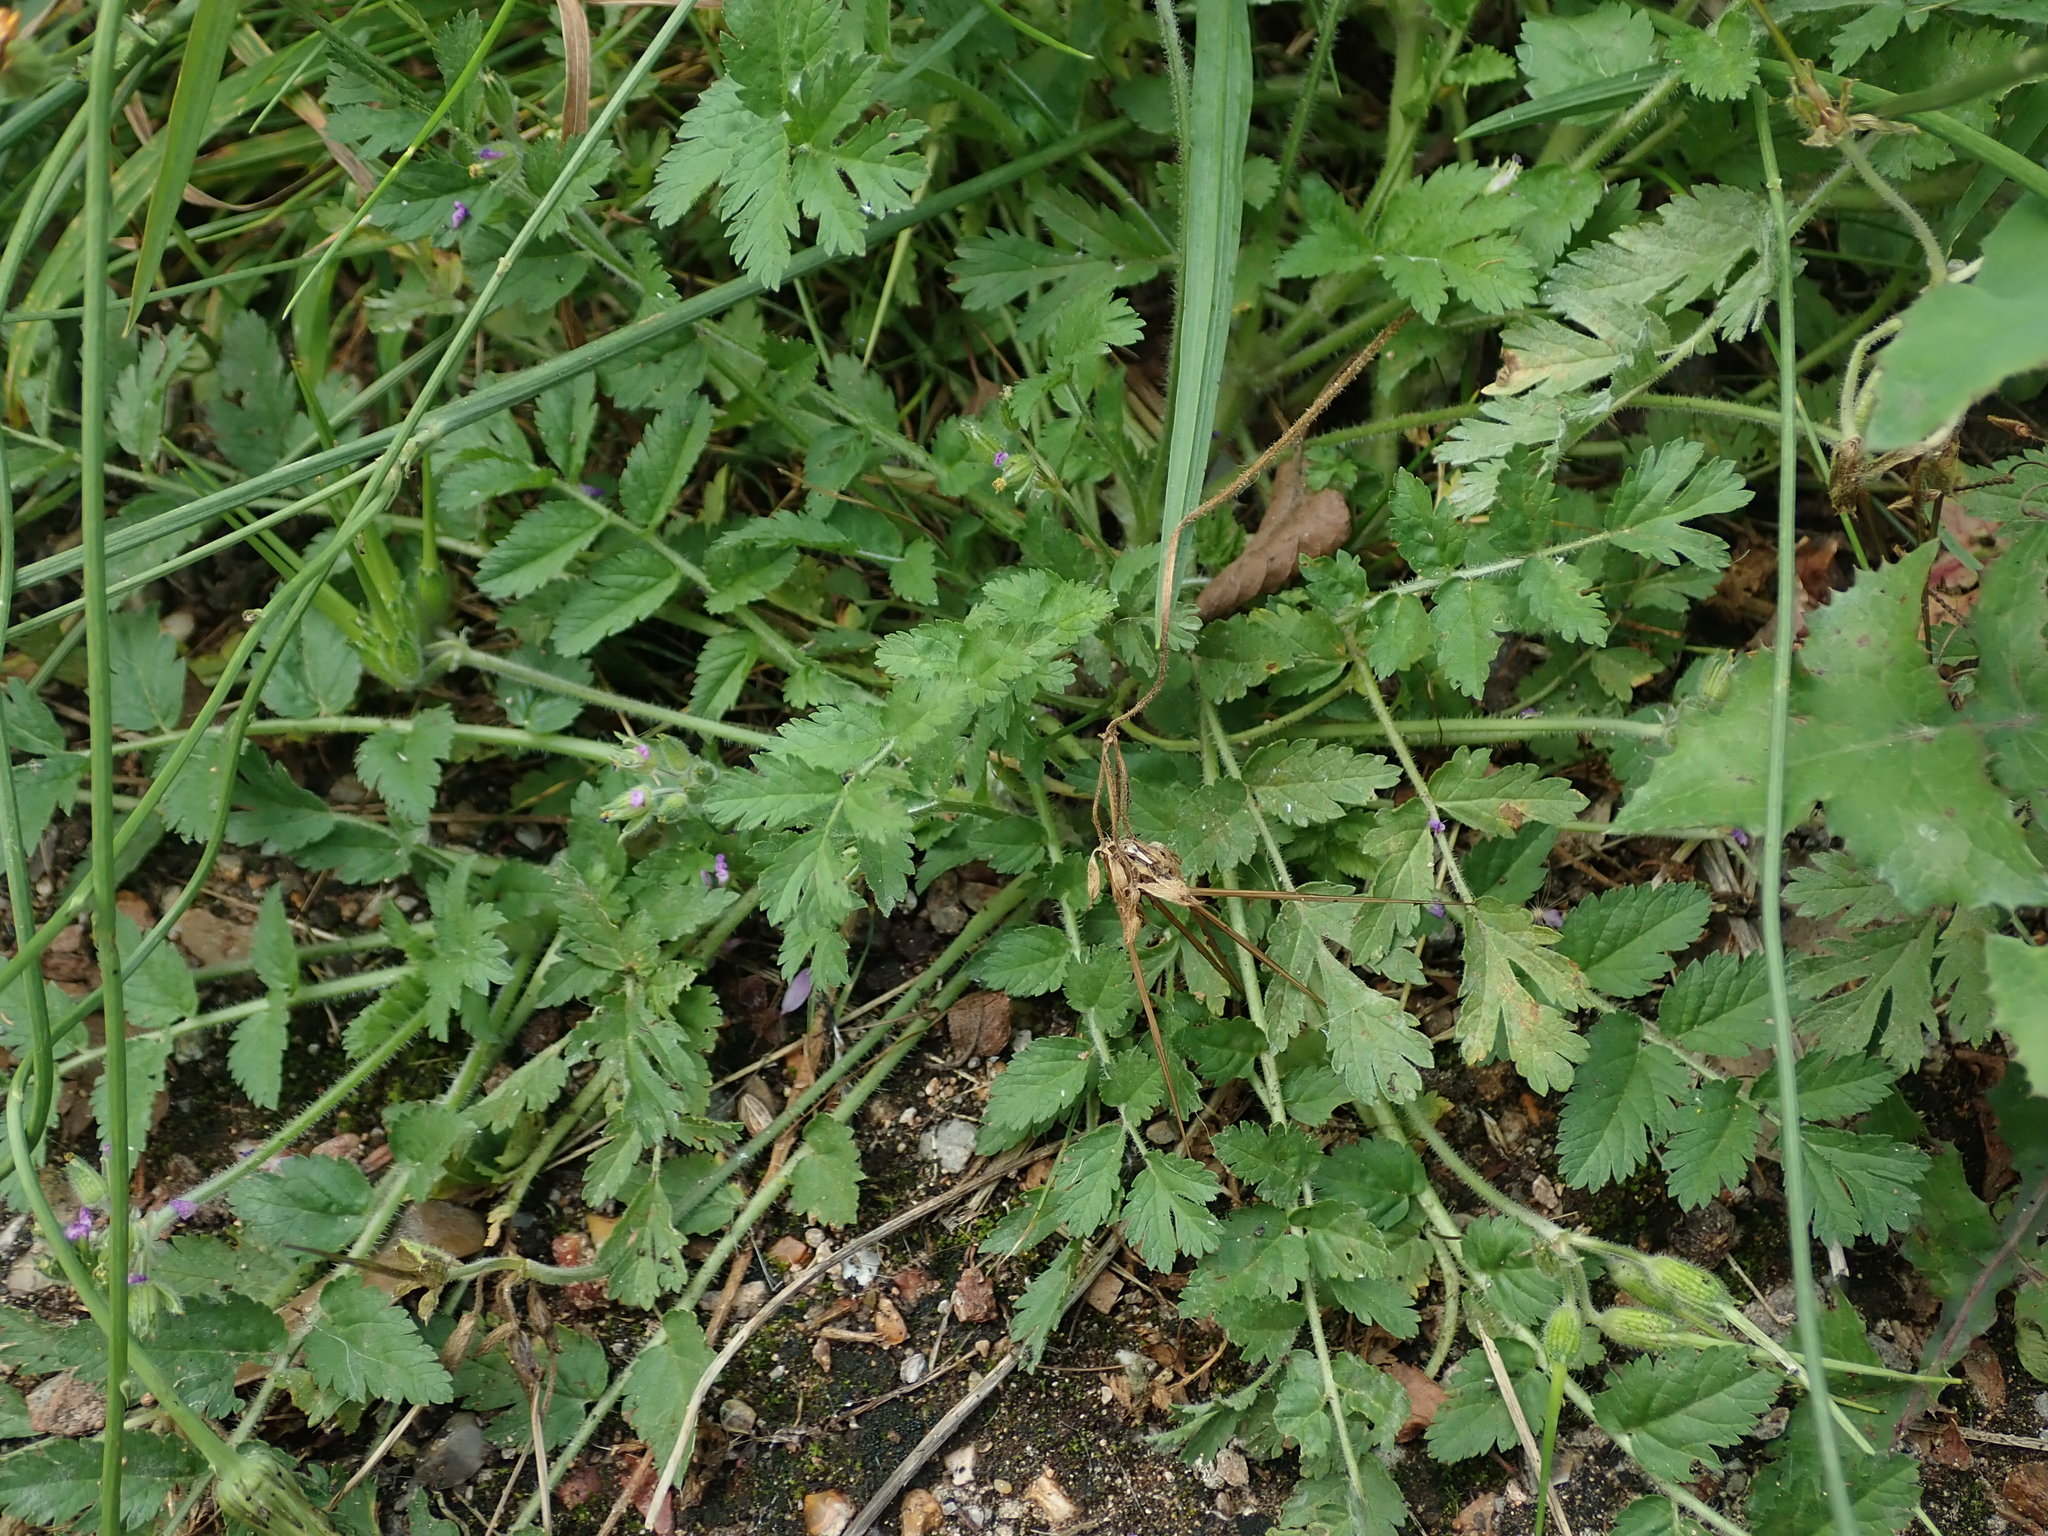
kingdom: Plantae
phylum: Tracheophyta
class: Magnoliopsida
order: Geraniales
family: Geraniaceae
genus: Erodium
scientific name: Erodium moschatum
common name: Musk stork's-bill
